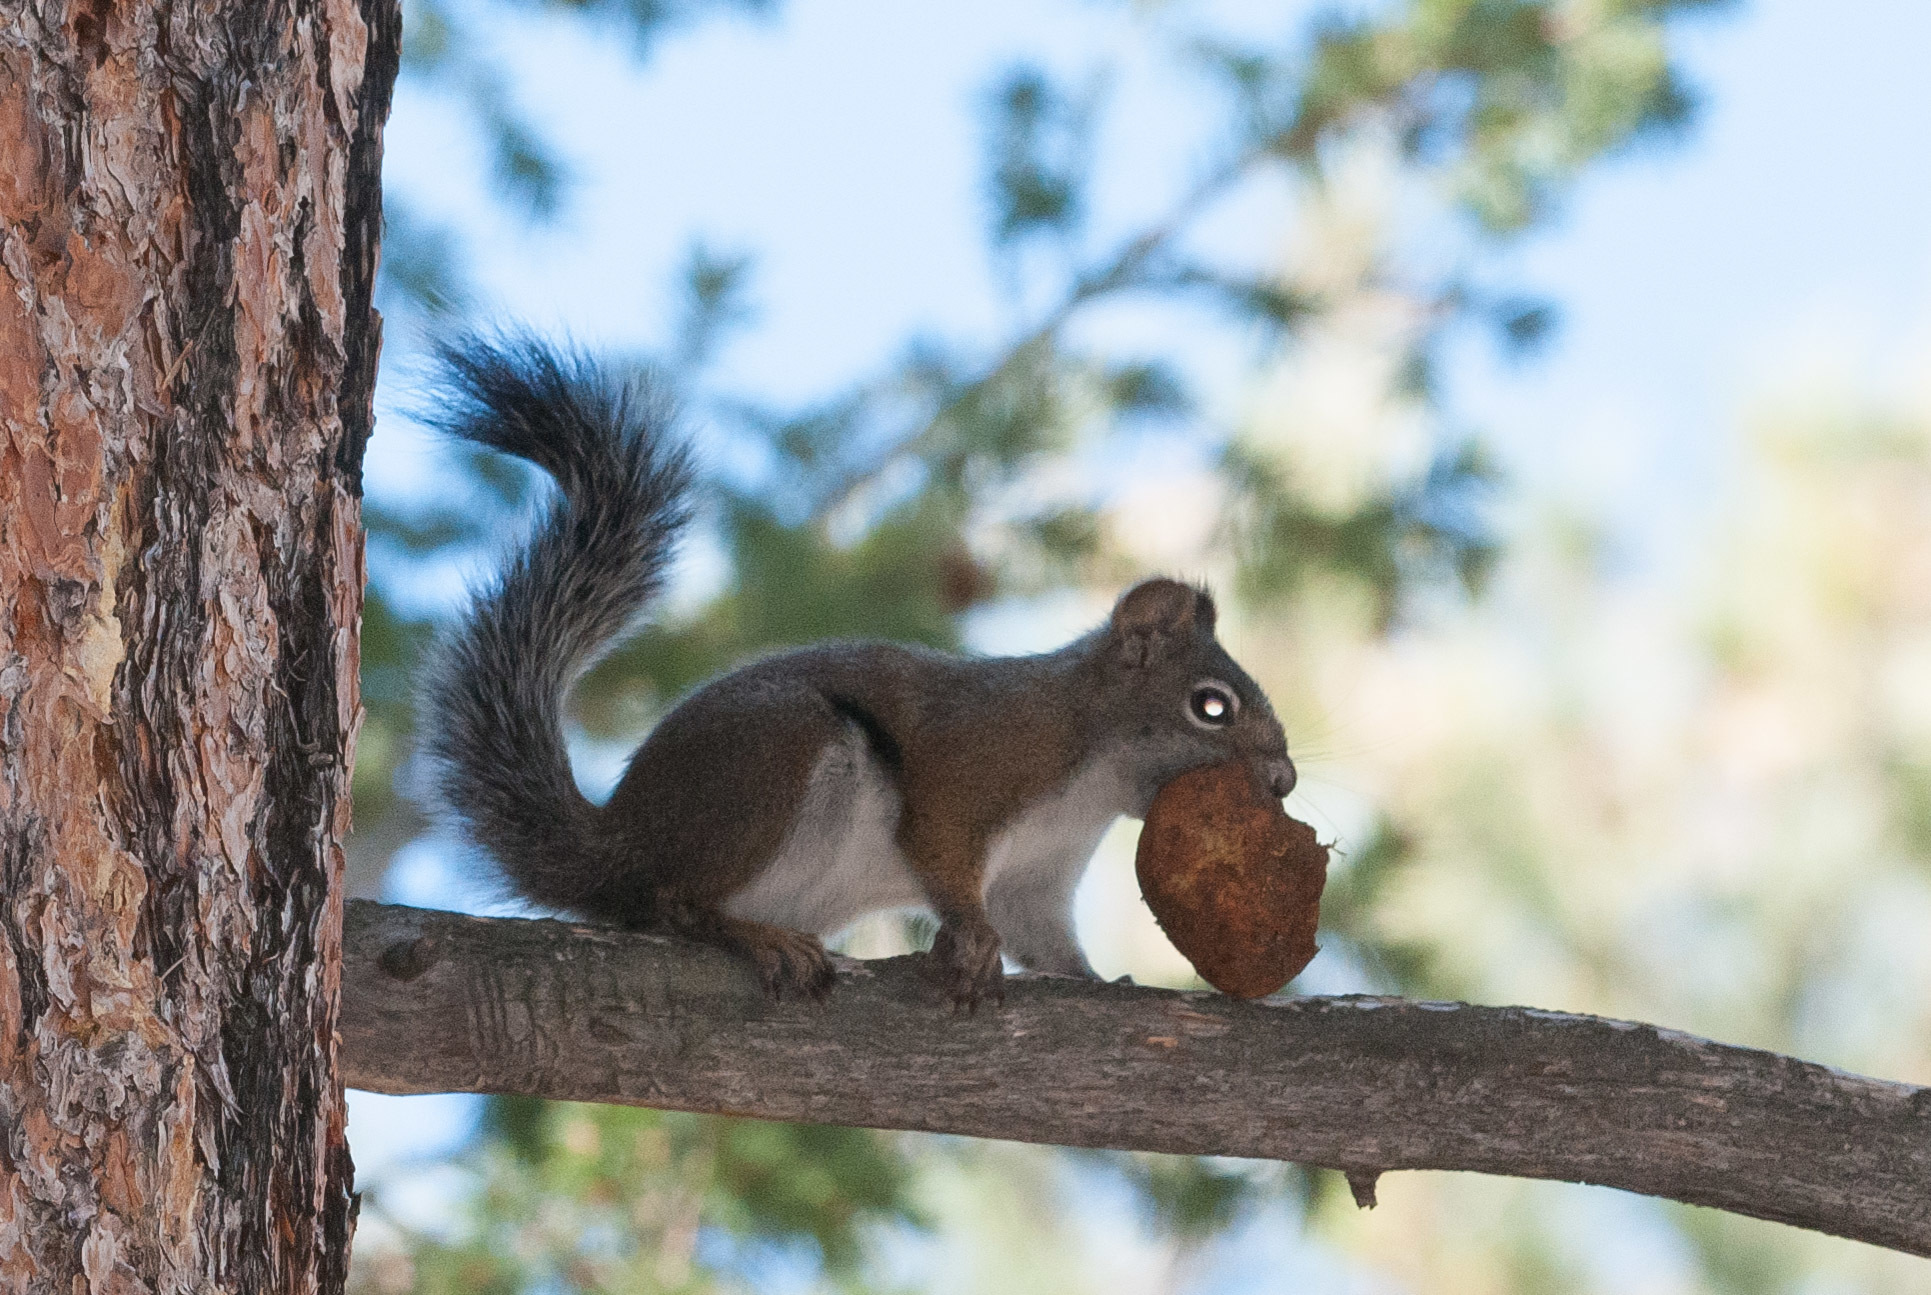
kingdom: Animalia
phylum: Chordata
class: Mammalia
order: Rodentia
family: Sciuridae
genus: Tamiasciurus
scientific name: Tamiasciurus hudsonicus
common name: Red squirrel
